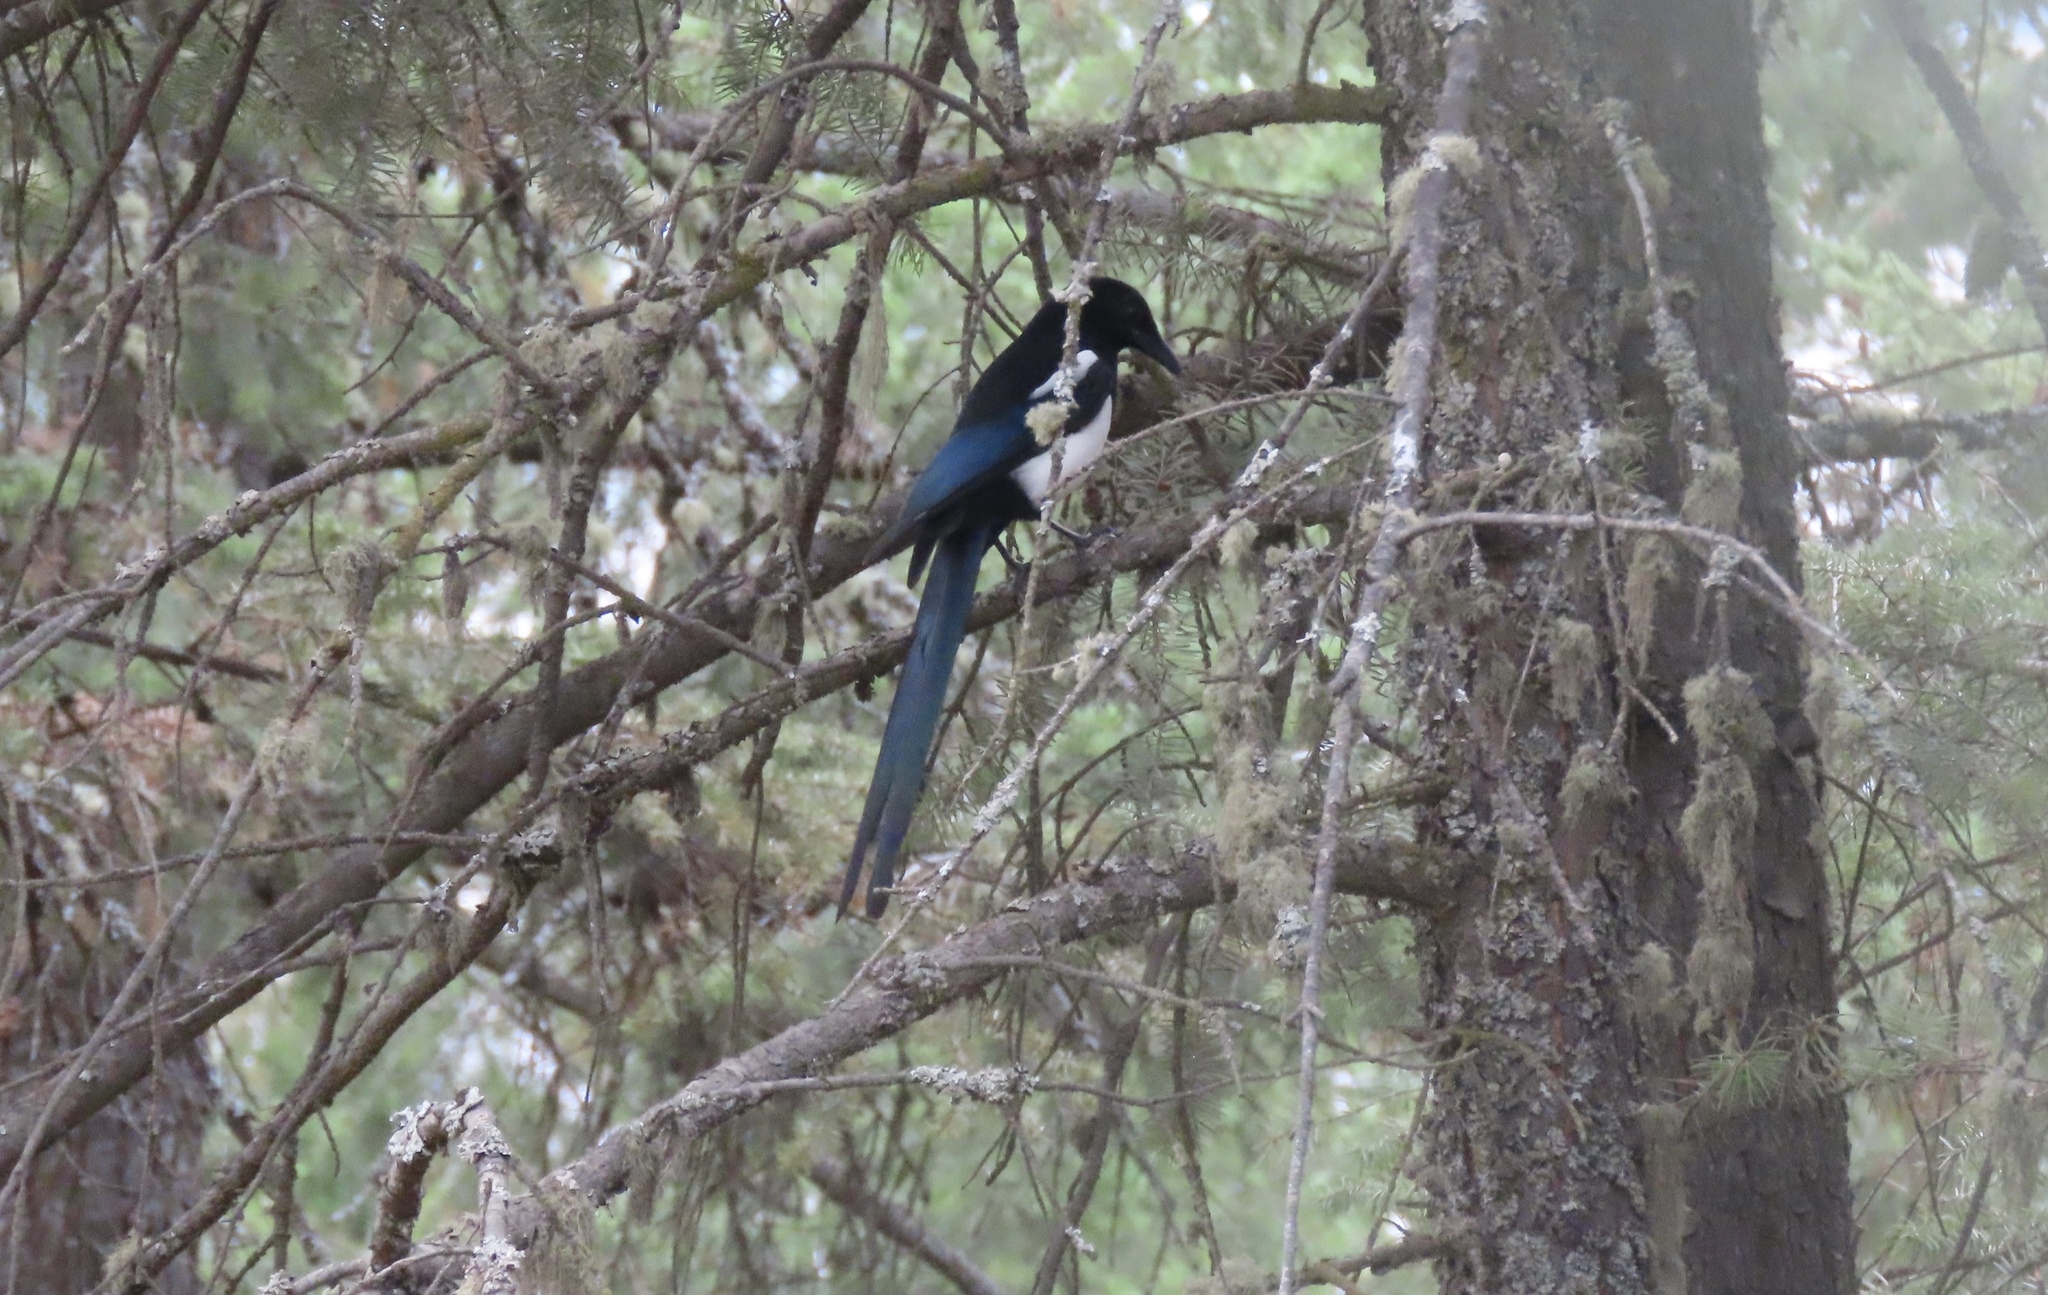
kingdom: Animalia
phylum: Chordata
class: Aves
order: Passeriformes
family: Corvidae
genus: Pica
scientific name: Pica hudsonia
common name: Black-billed magpie
